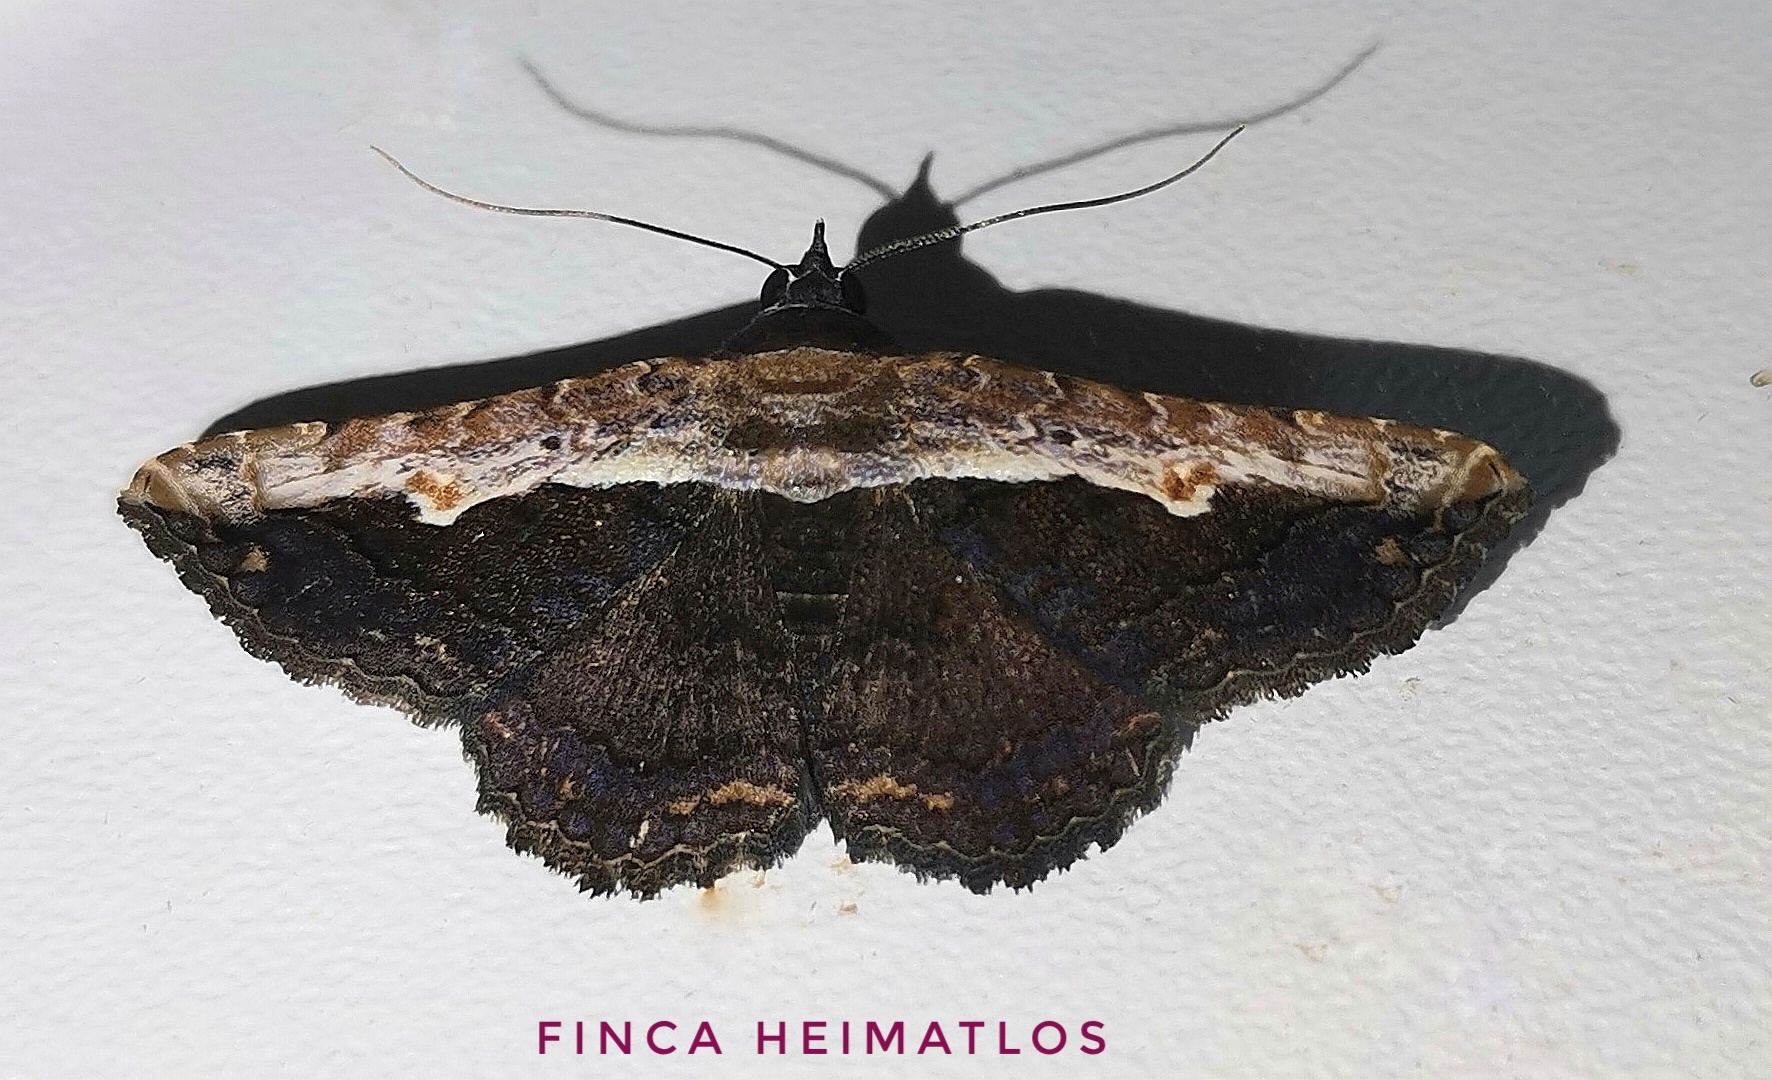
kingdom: Animalia
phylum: Arthropoda
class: Insecta
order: Lepidoptera
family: Erebidae
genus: Selenisa
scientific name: Selenisa sueroides
